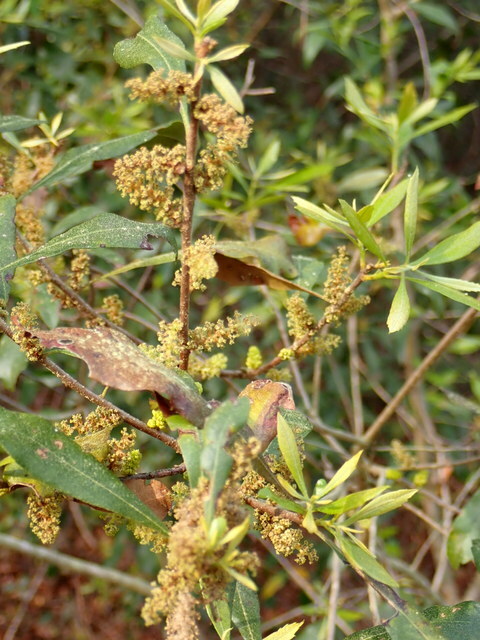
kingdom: Plantae
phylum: Tracheophyta
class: Magnoliopsida
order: Fagales
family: Myricaceae
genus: Morella
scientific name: Morella cerifera
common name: Wax myrtle
